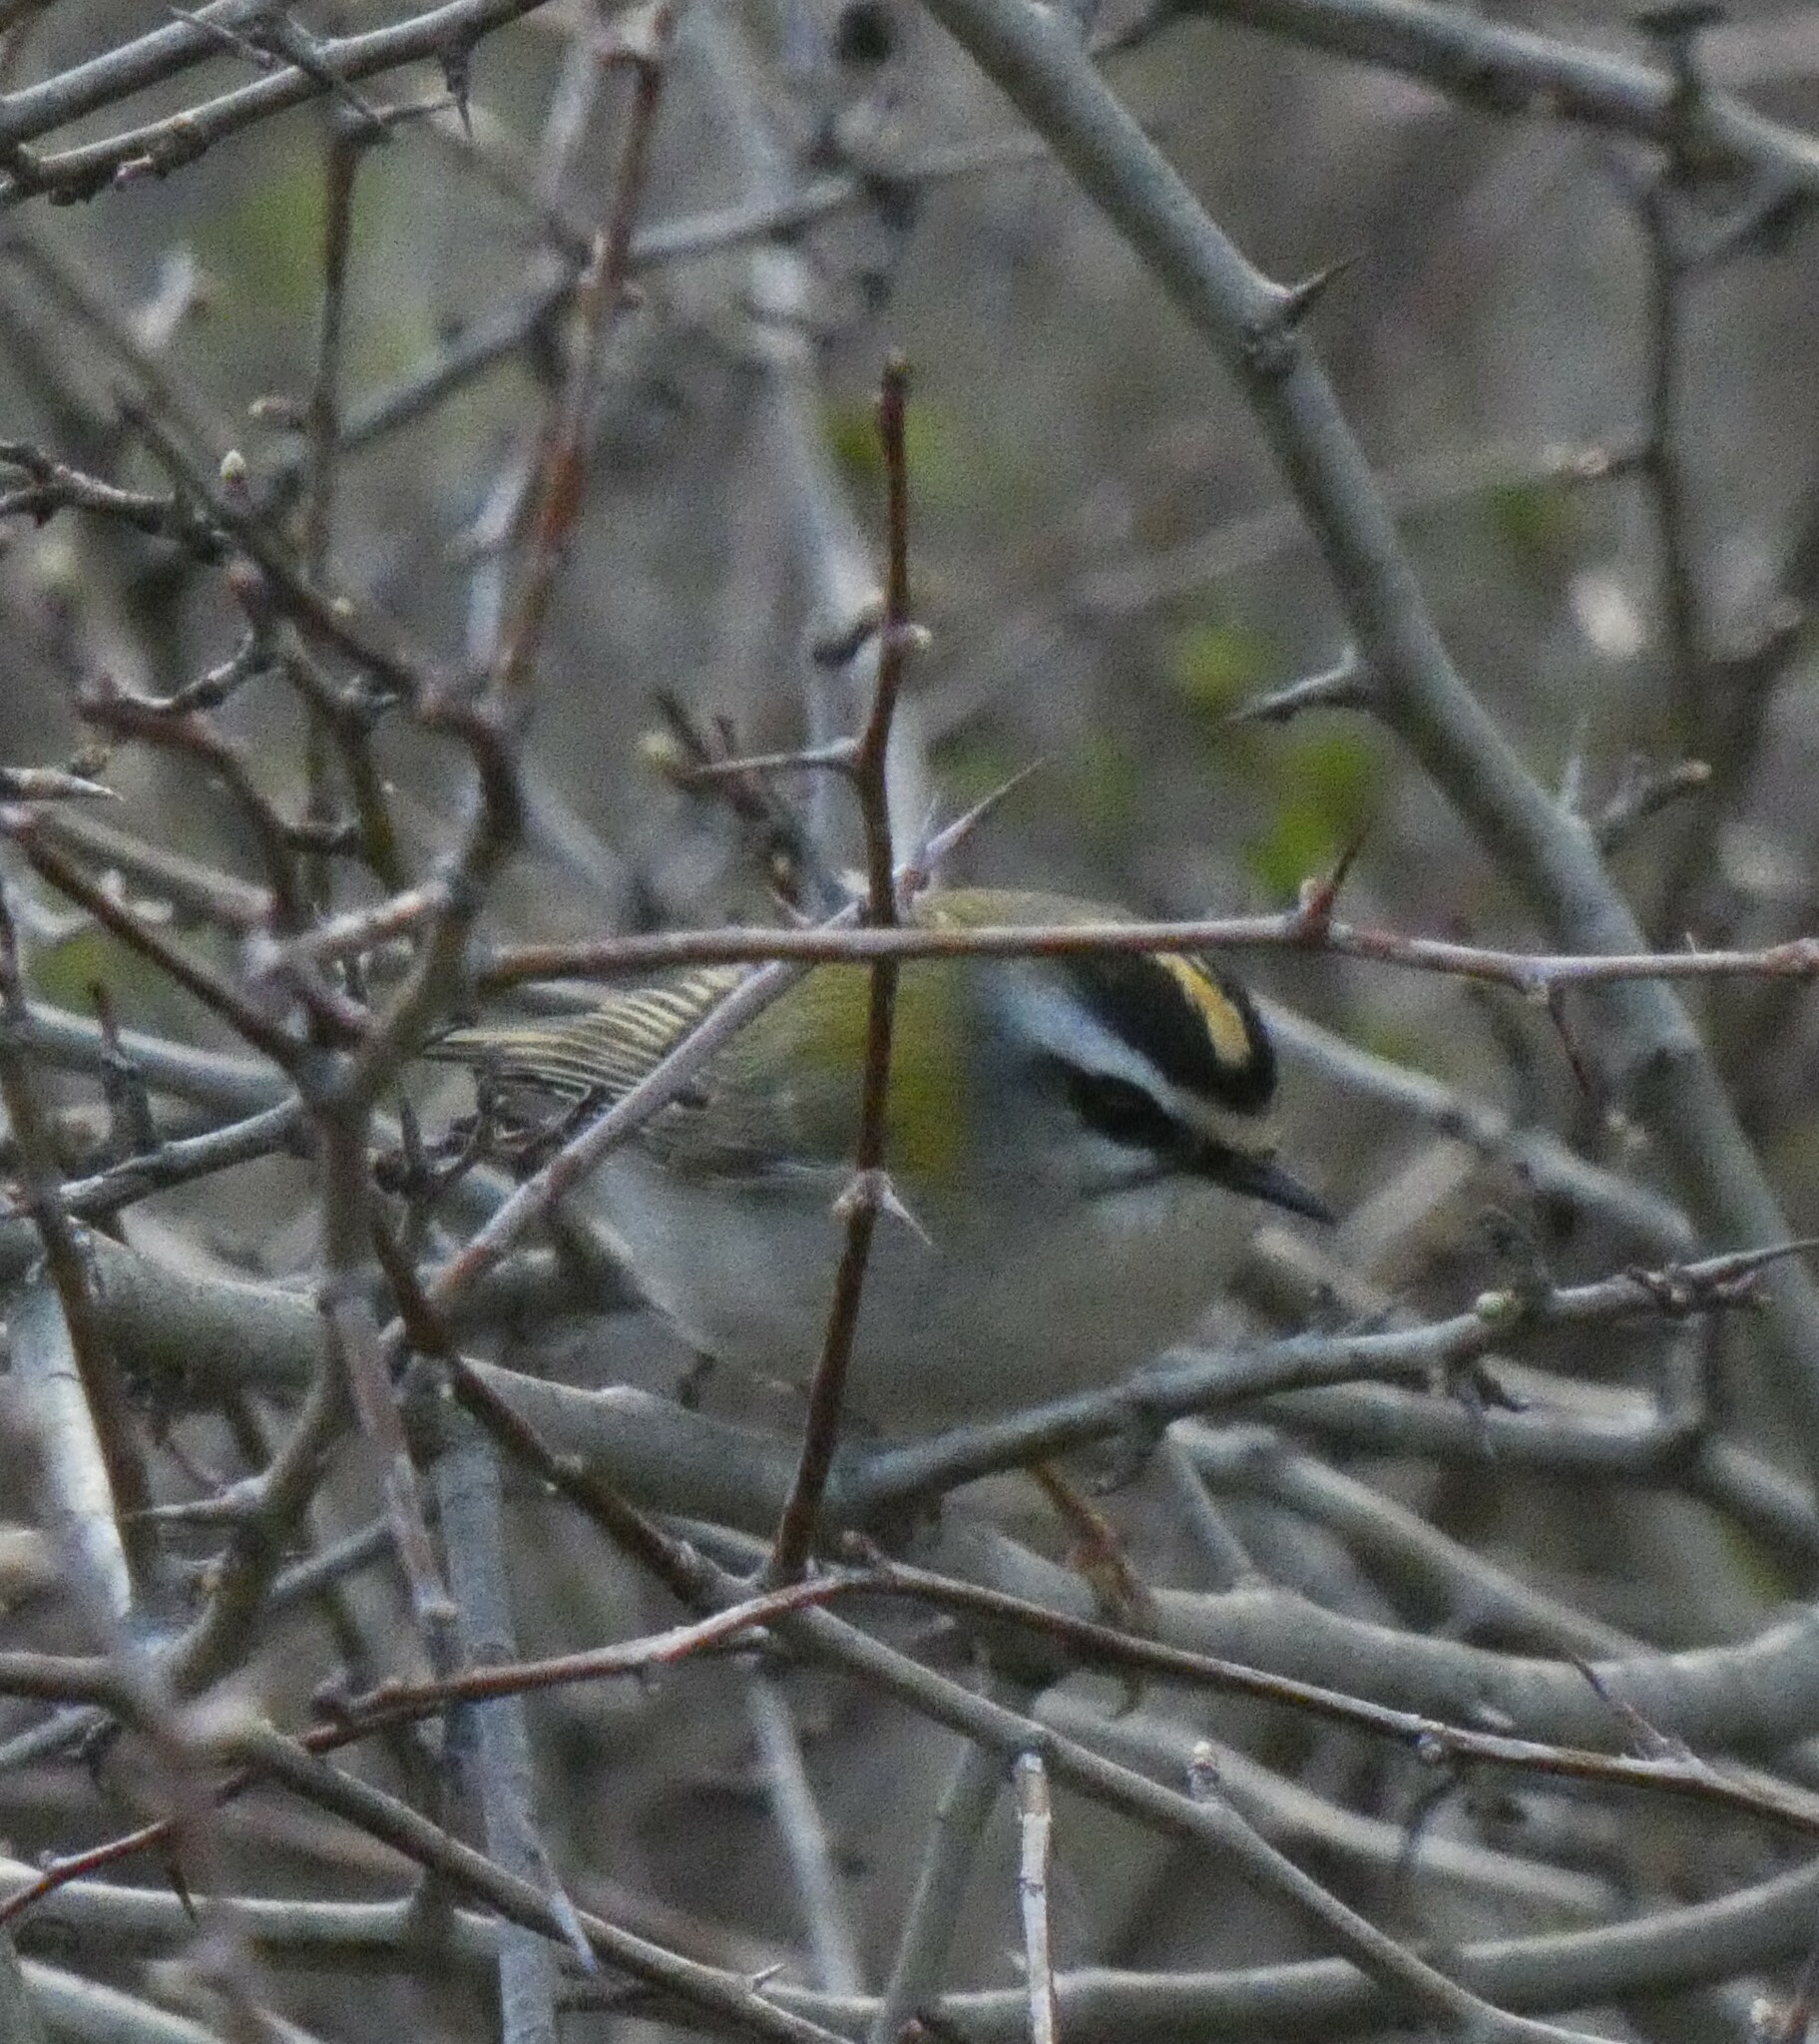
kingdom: Animalia
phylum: Chordata
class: Aves
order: Passeriformes
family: Regulidae
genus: Regulus
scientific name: Regulus ignicapilla
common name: Firecrest
